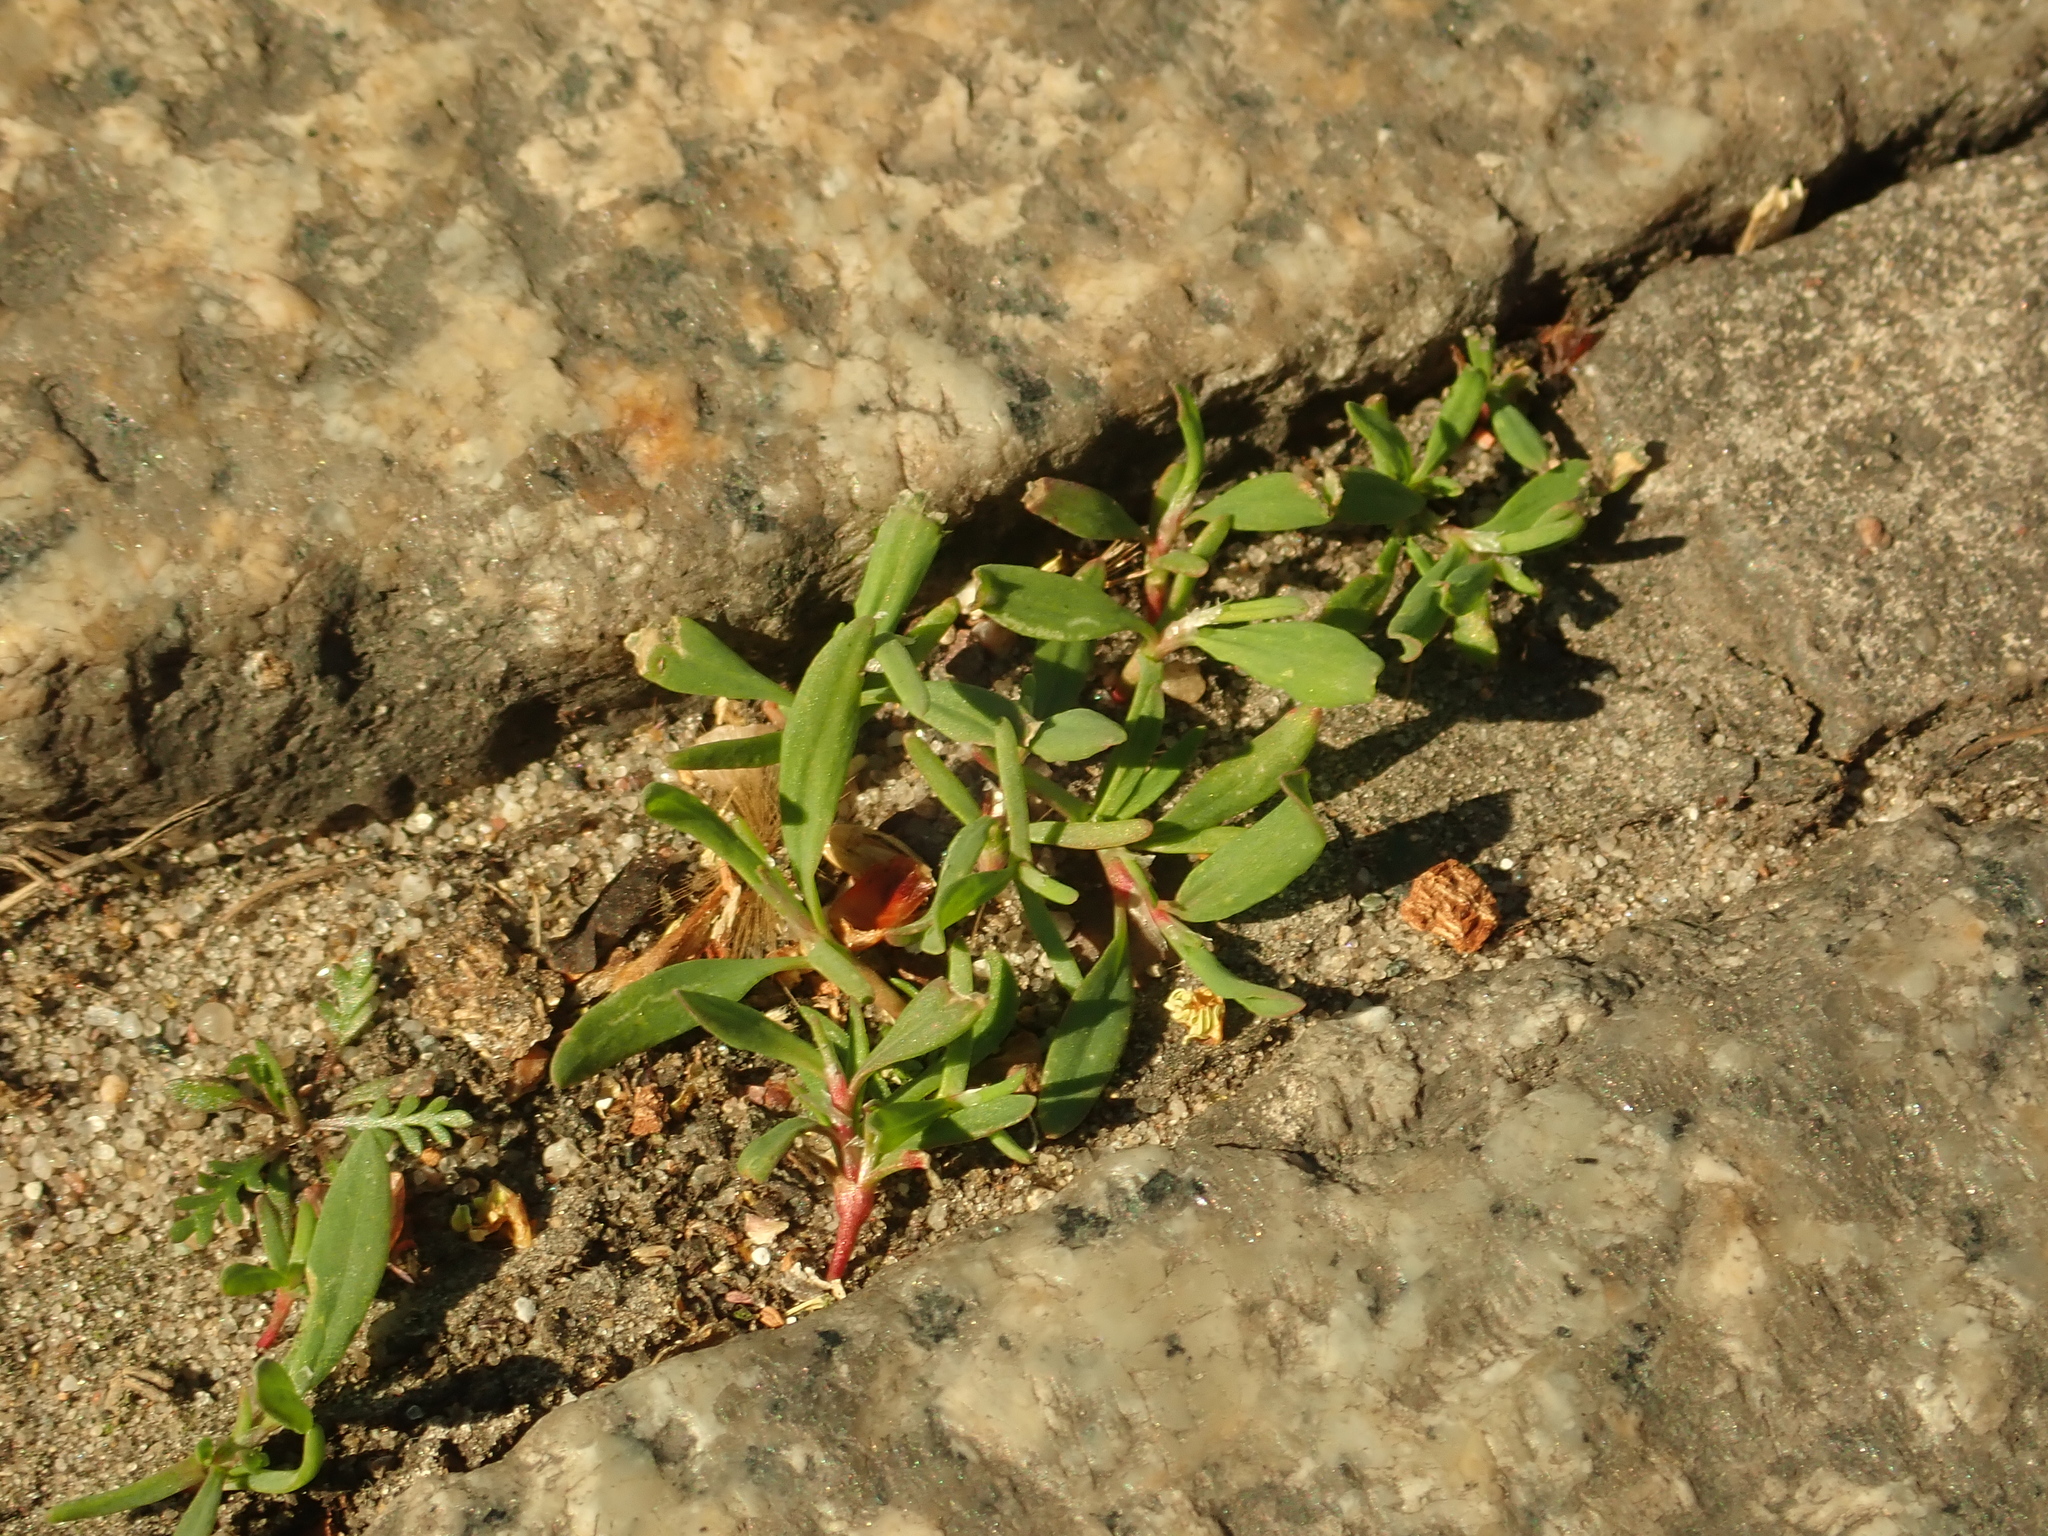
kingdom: Plantae
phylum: Tracheophyta
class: Magnoliopsida
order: Caryophyllales
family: Polygonaceae
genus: Polygonum
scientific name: Polygonum aviculare
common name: Prostrate knotweed
